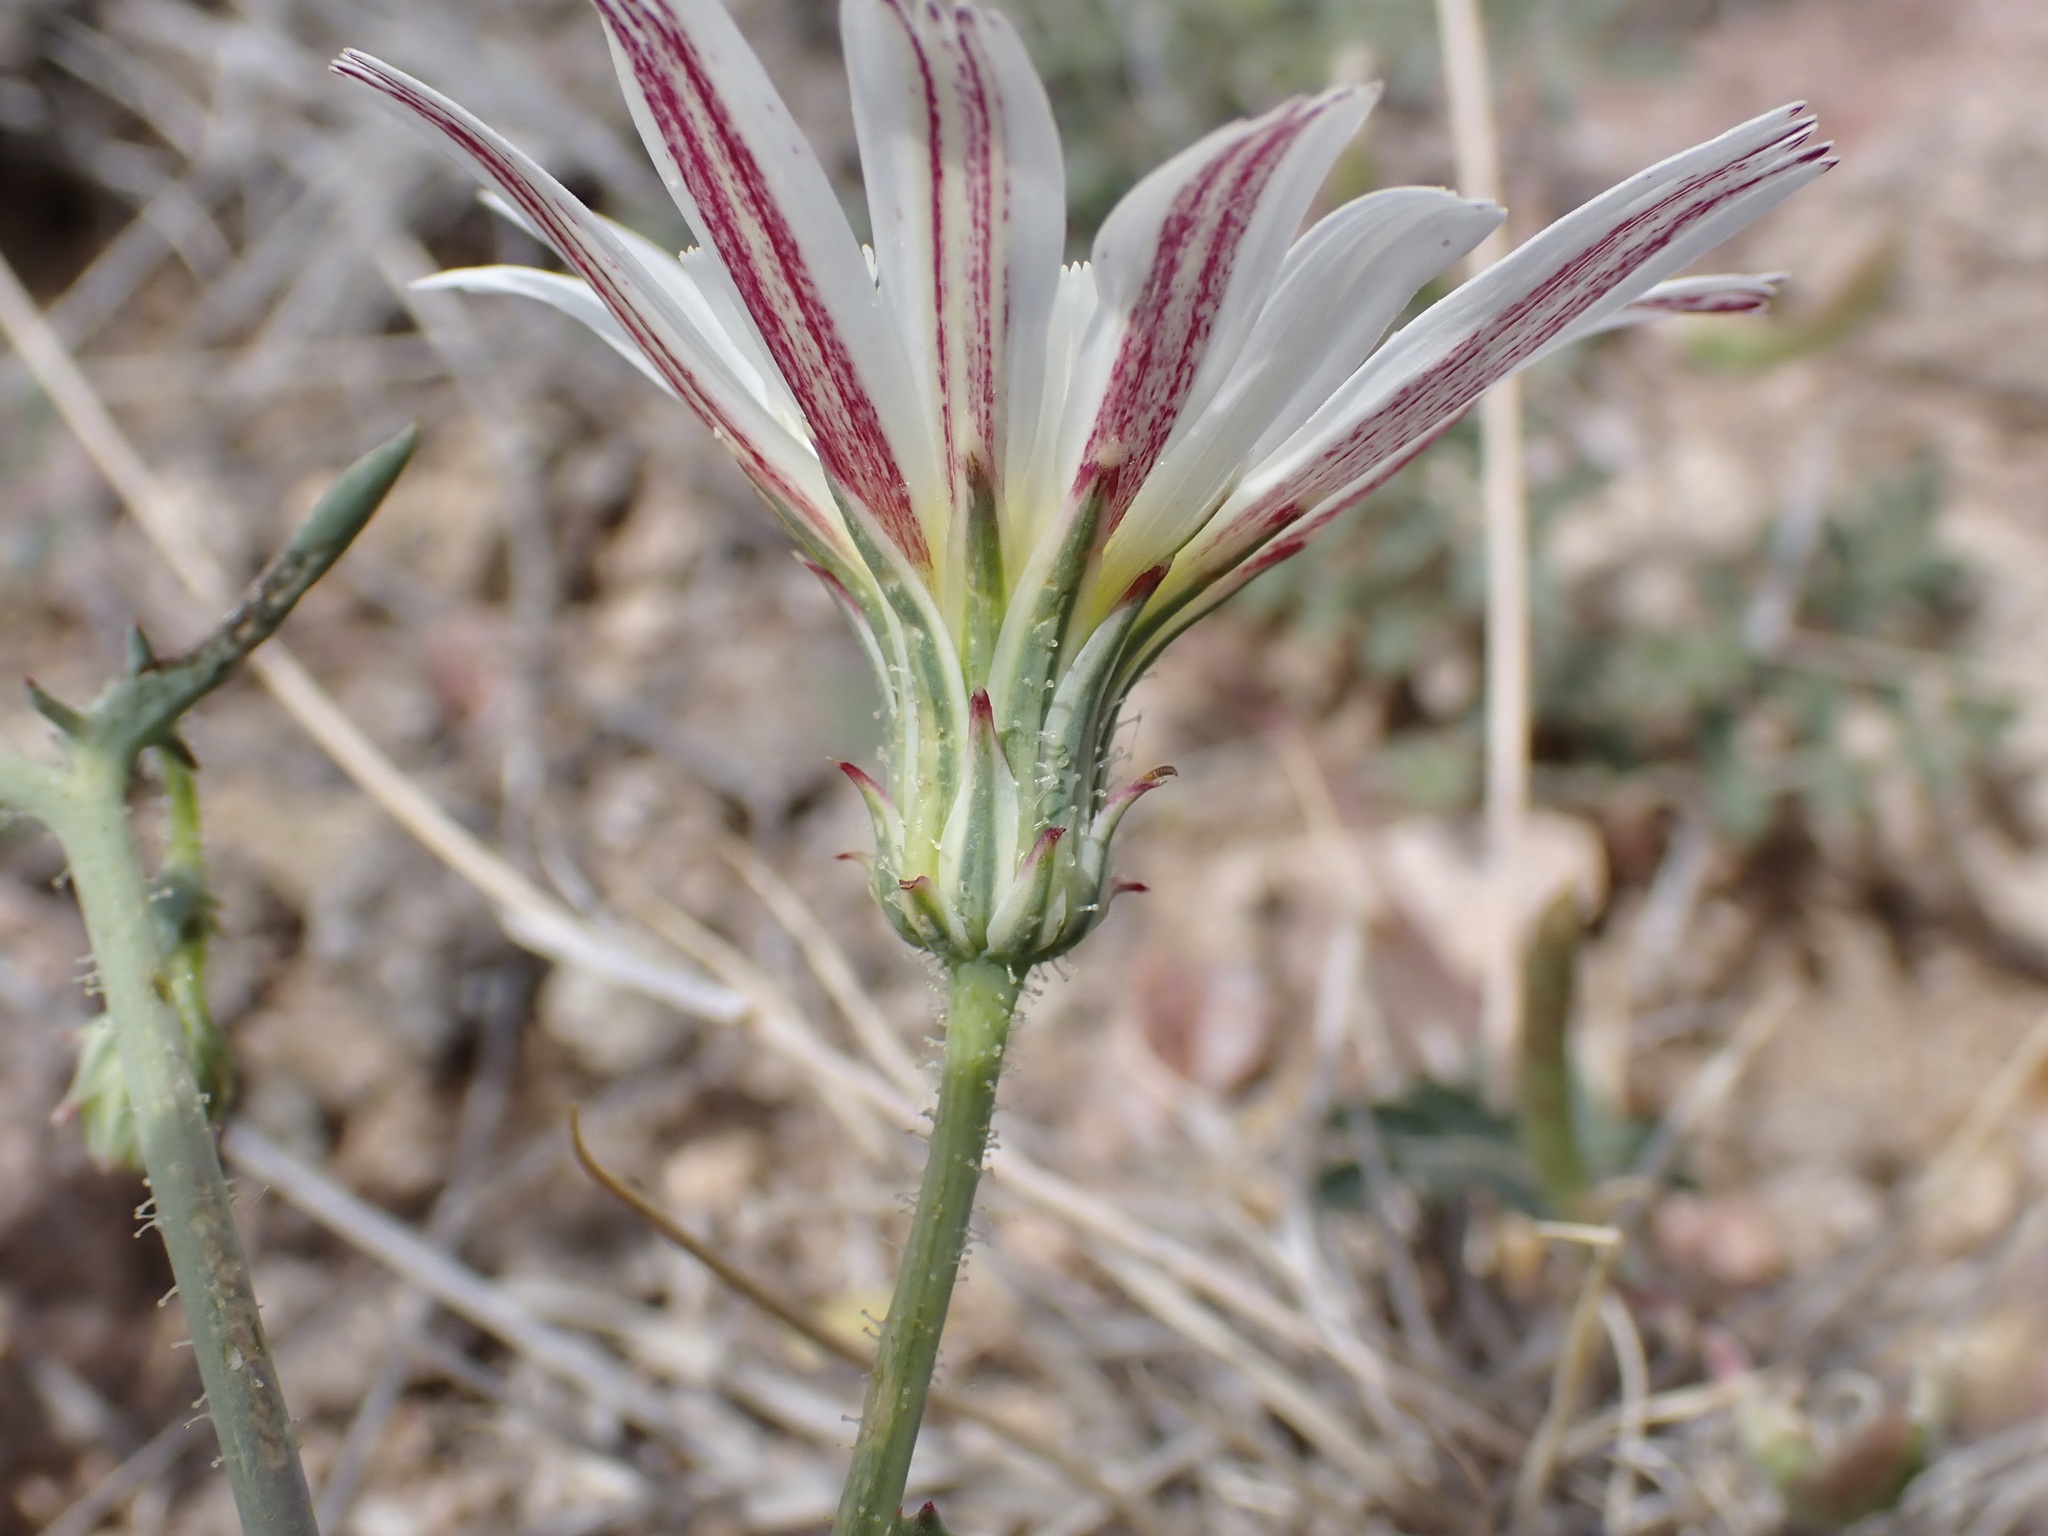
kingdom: Plantae
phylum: Tracheophyta
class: Magnoliopsida
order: Asterales
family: Asteraceae
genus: Calycoseris
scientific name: Calycoseris wrightii
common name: White tackstem
